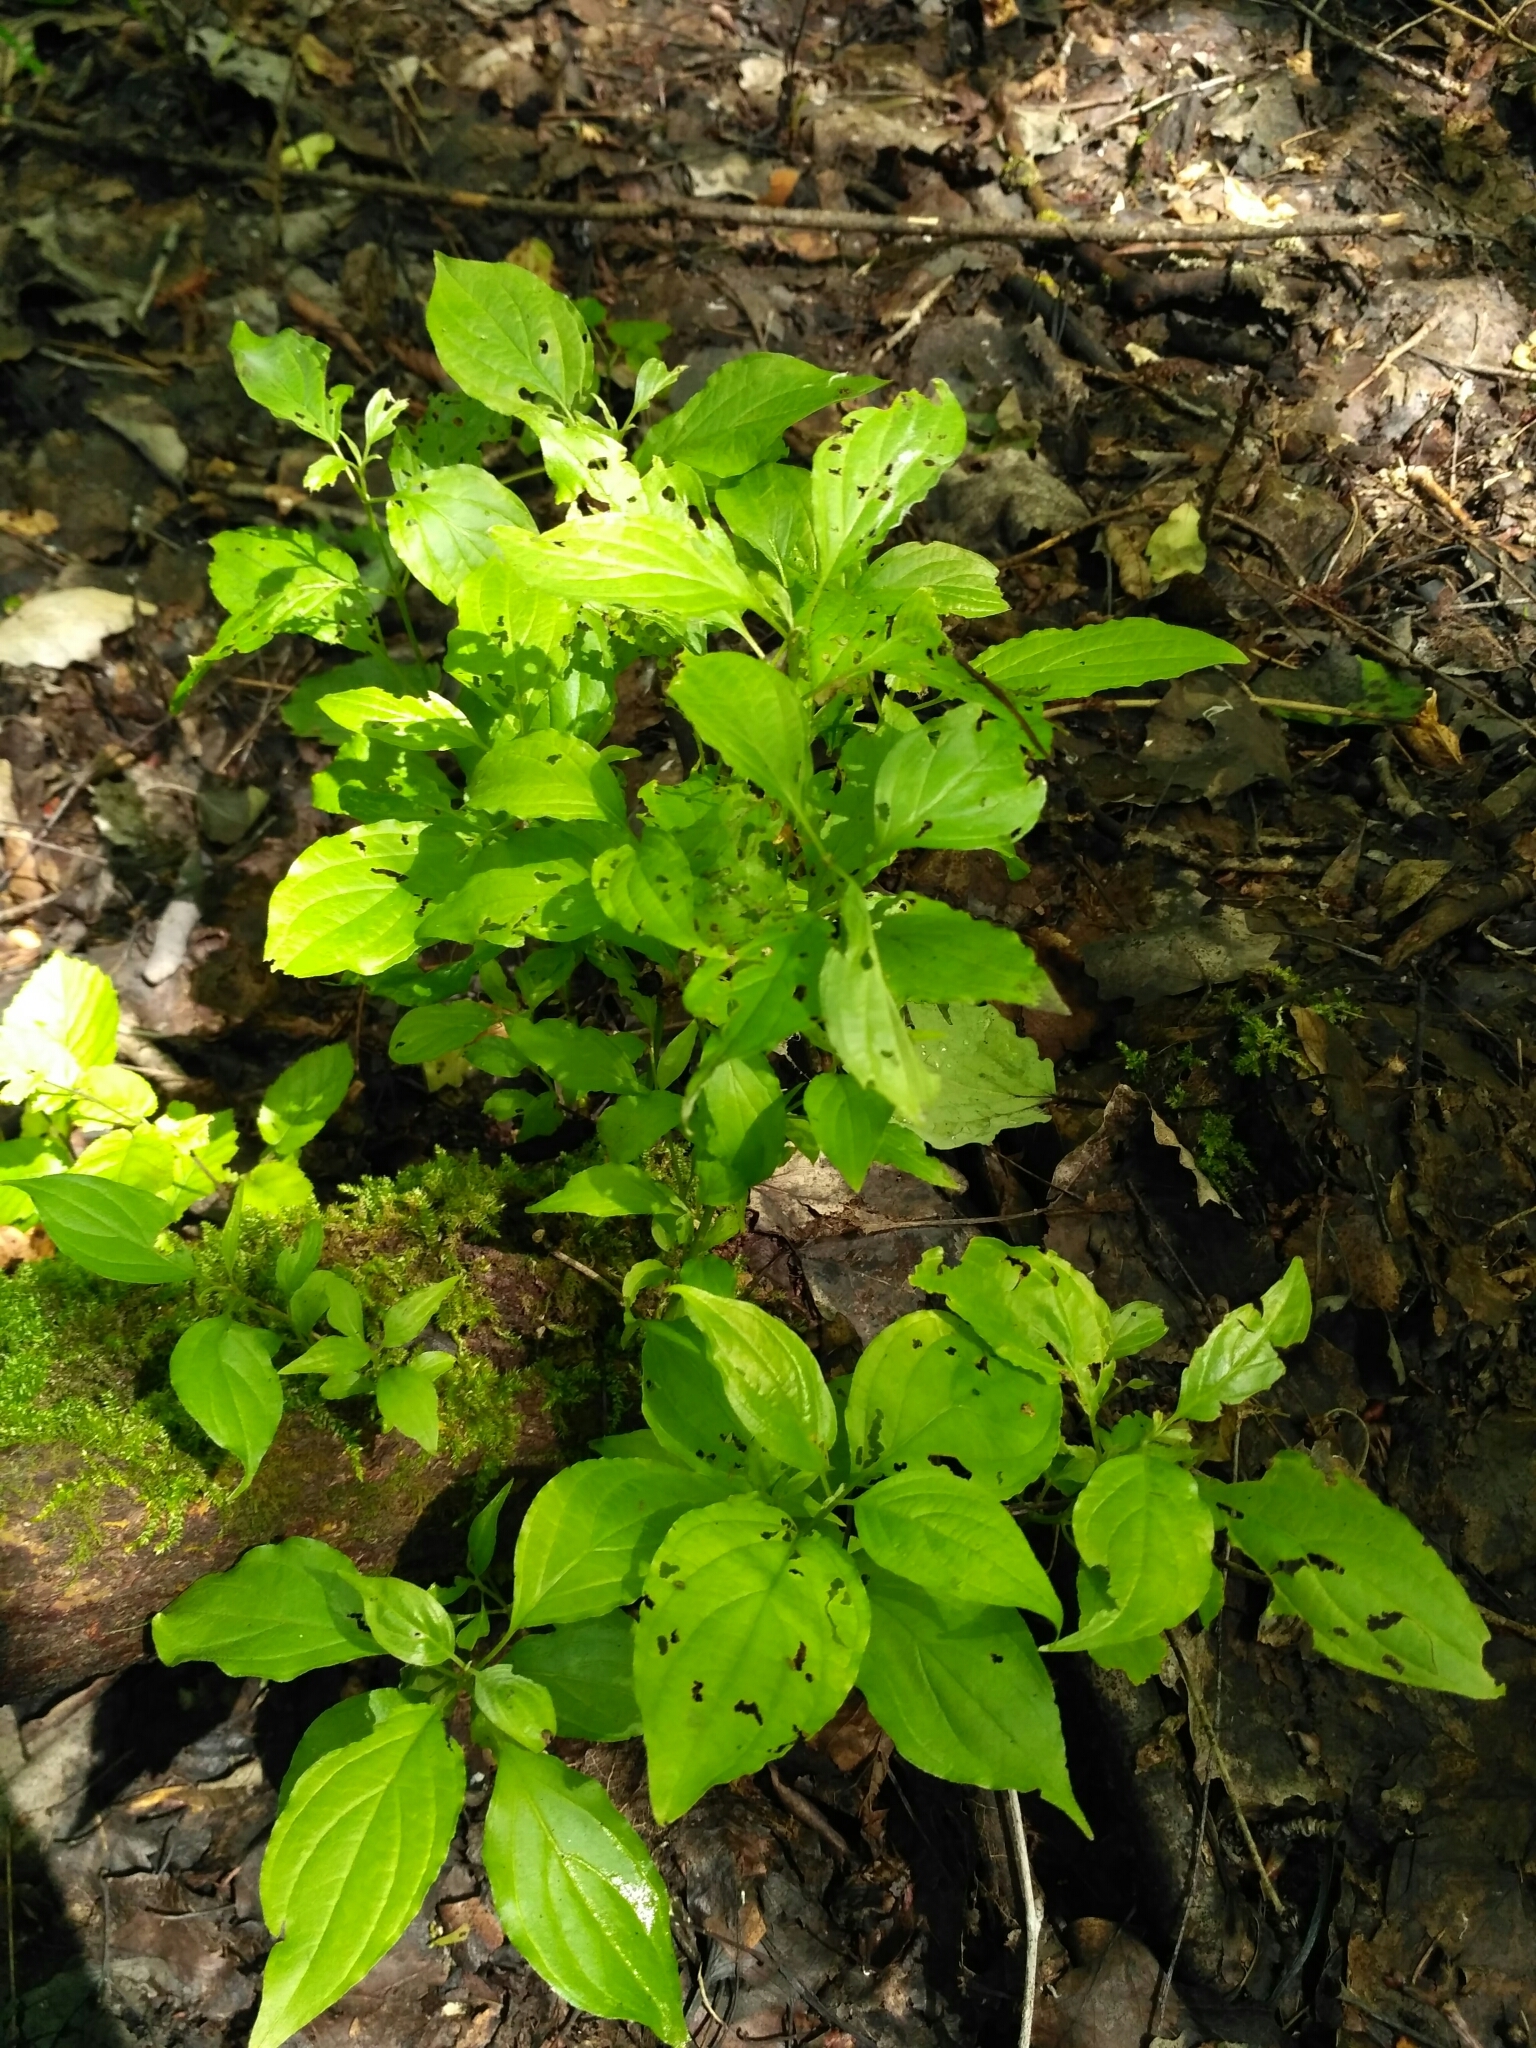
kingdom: Plantae
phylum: Tracheophyta
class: Magnoliopsida
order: Cornales
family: Cornaceae
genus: Cornus
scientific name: Cornus sanguinea
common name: Dogwood
